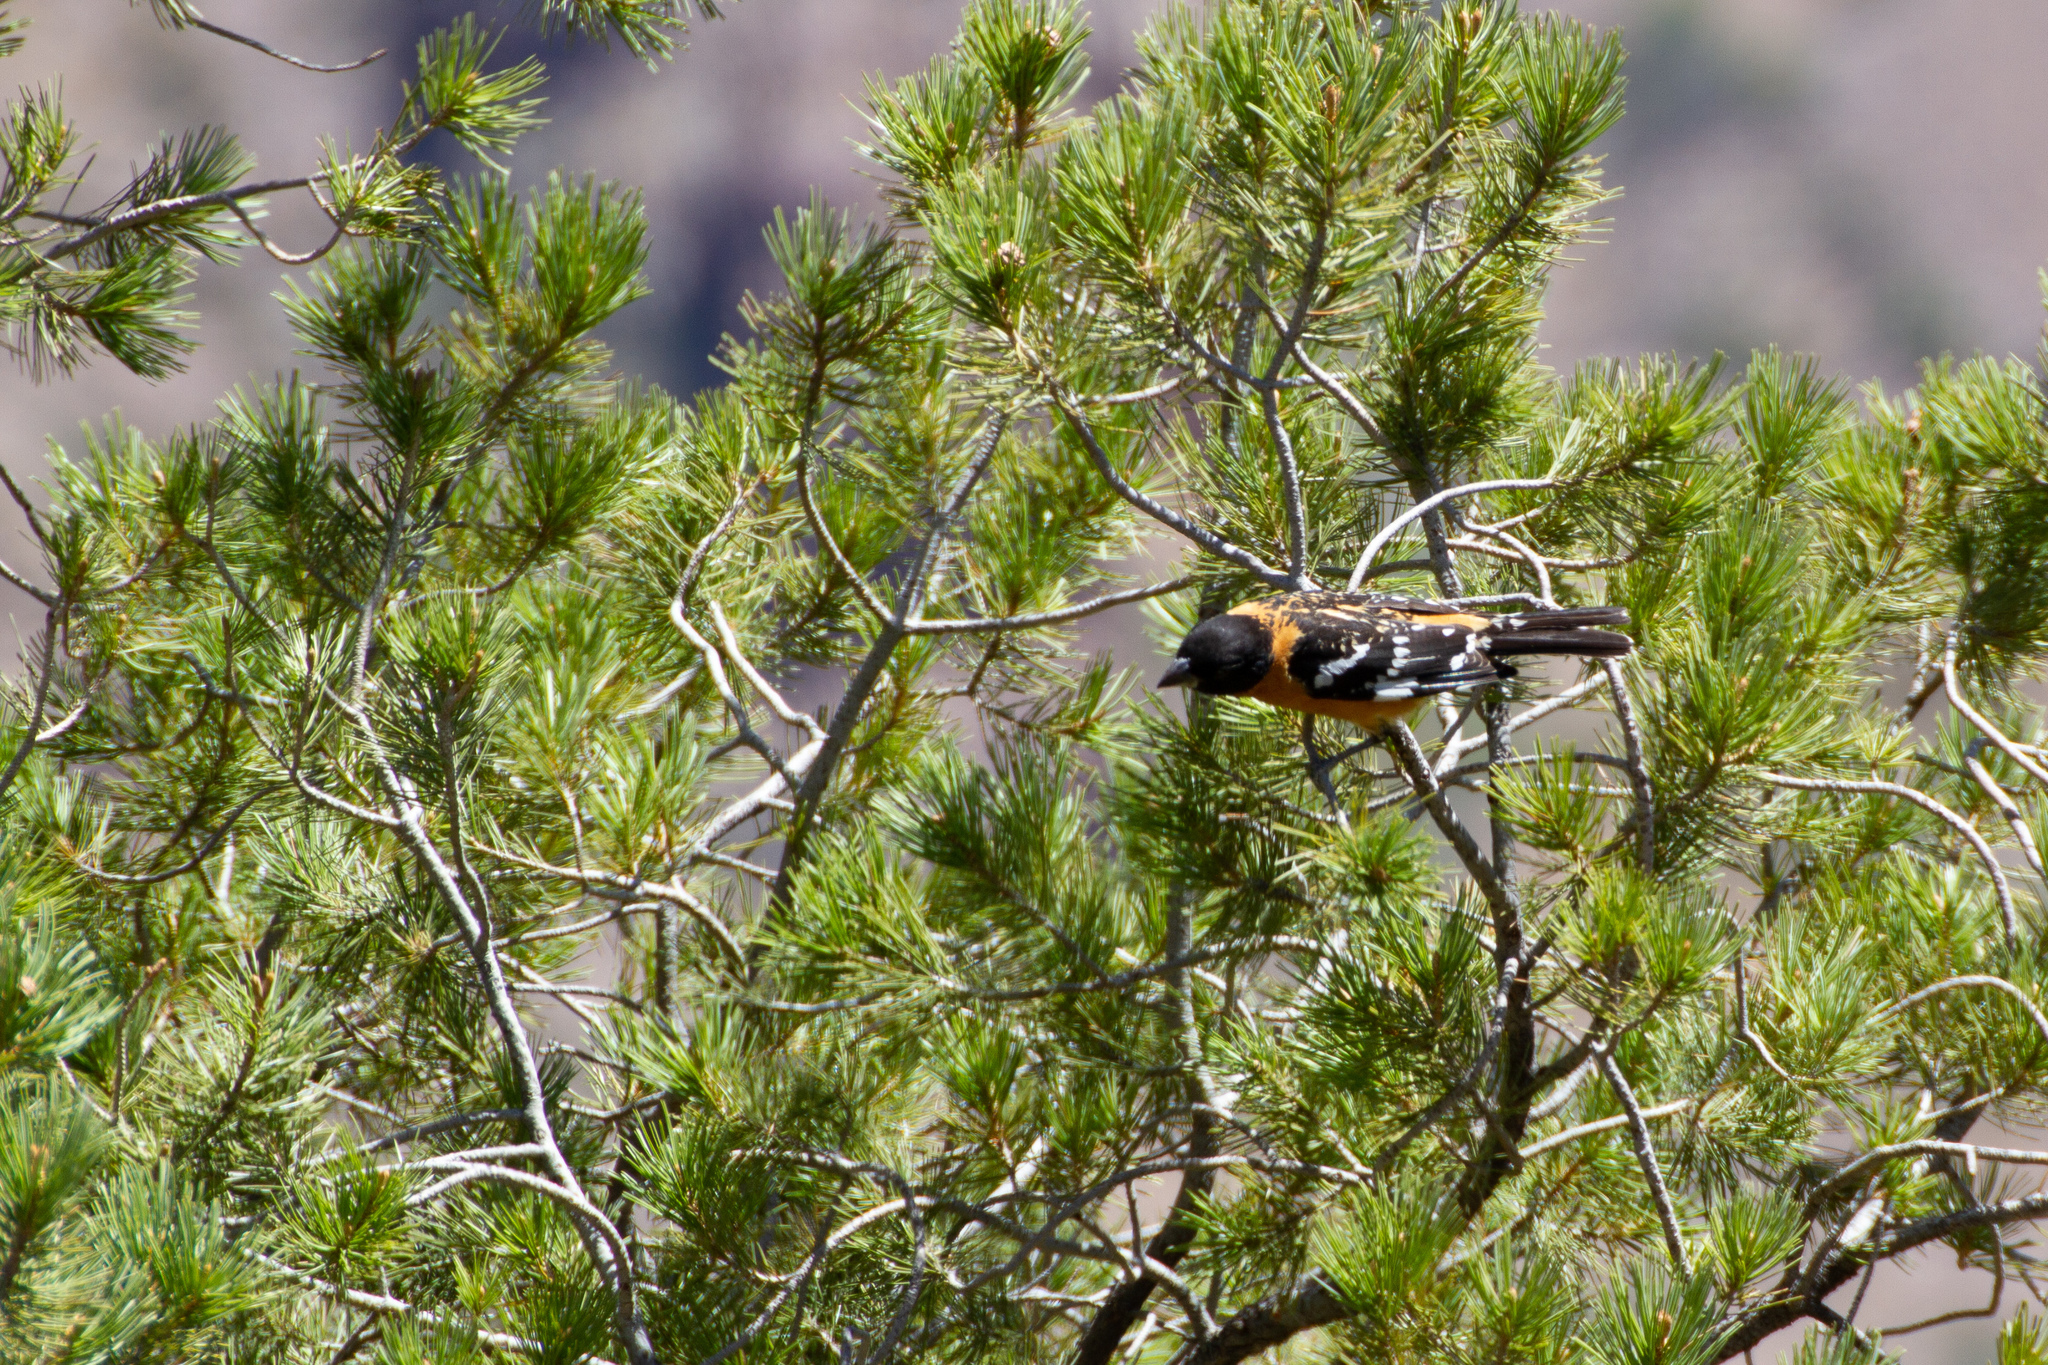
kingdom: Animalia
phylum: Chordata
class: Aves
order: Passeriformes
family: Cardinalidae
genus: Pheucticus
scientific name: Pheucticus melanocephalus
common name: Black-headed grosbeak
